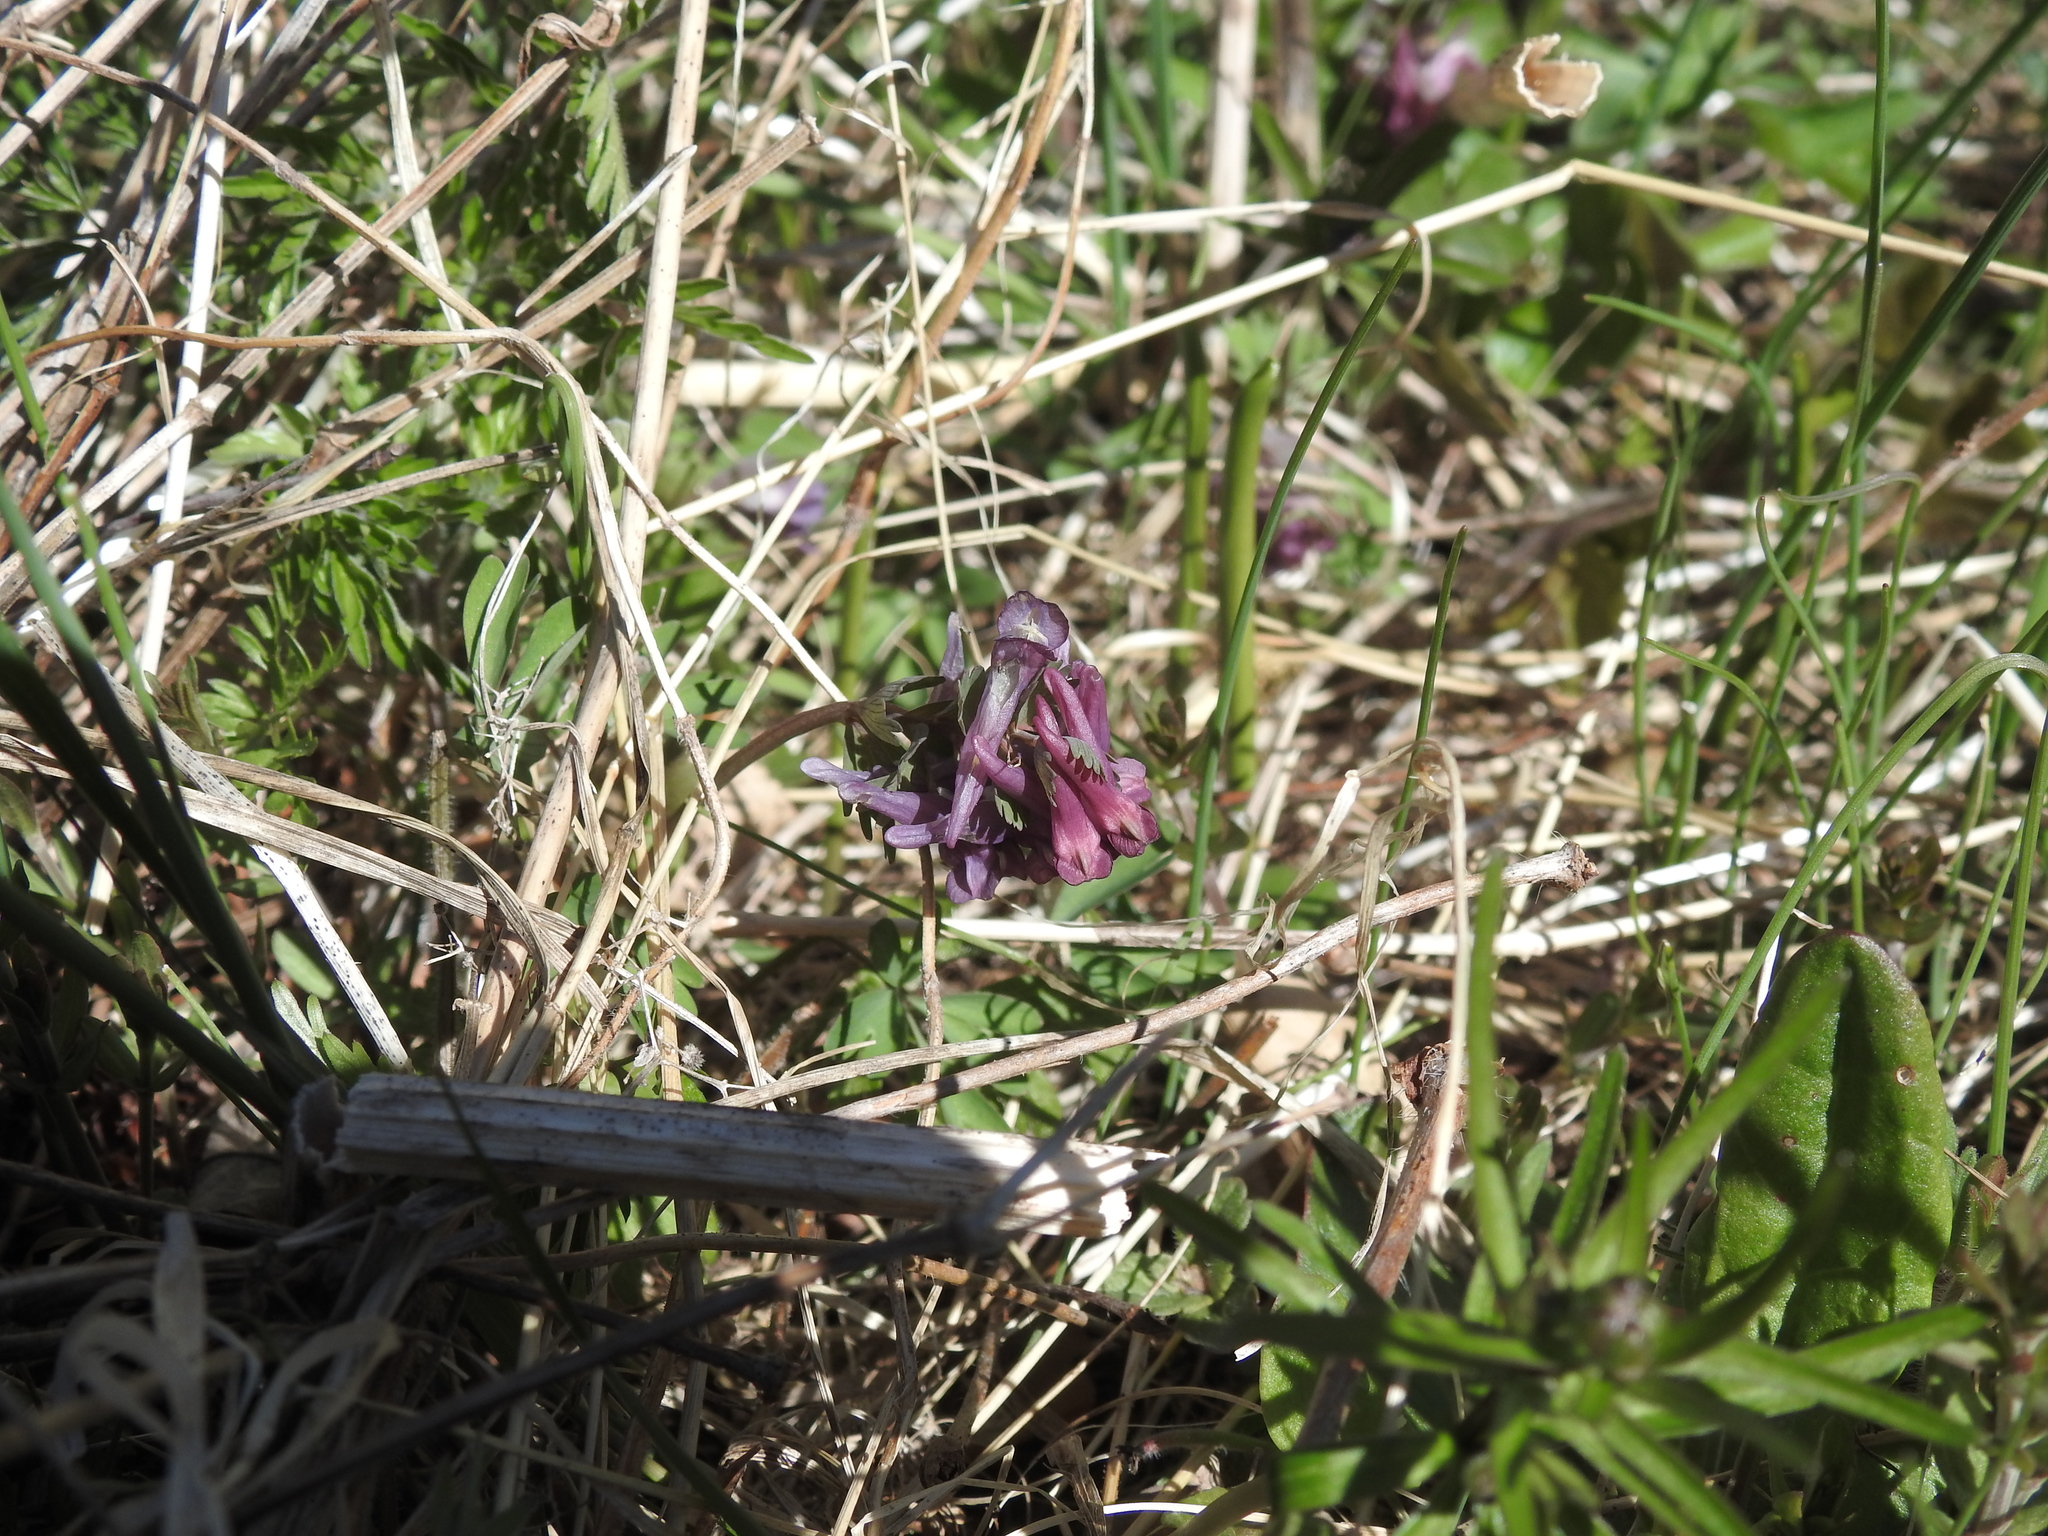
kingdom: Plantae
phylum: Tracheophyta
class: Magnoliopsida
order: Ranunculales
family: Papaveraceae
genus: Corydalis
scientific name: Corydalis solida
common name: Bird-in-a-bush
